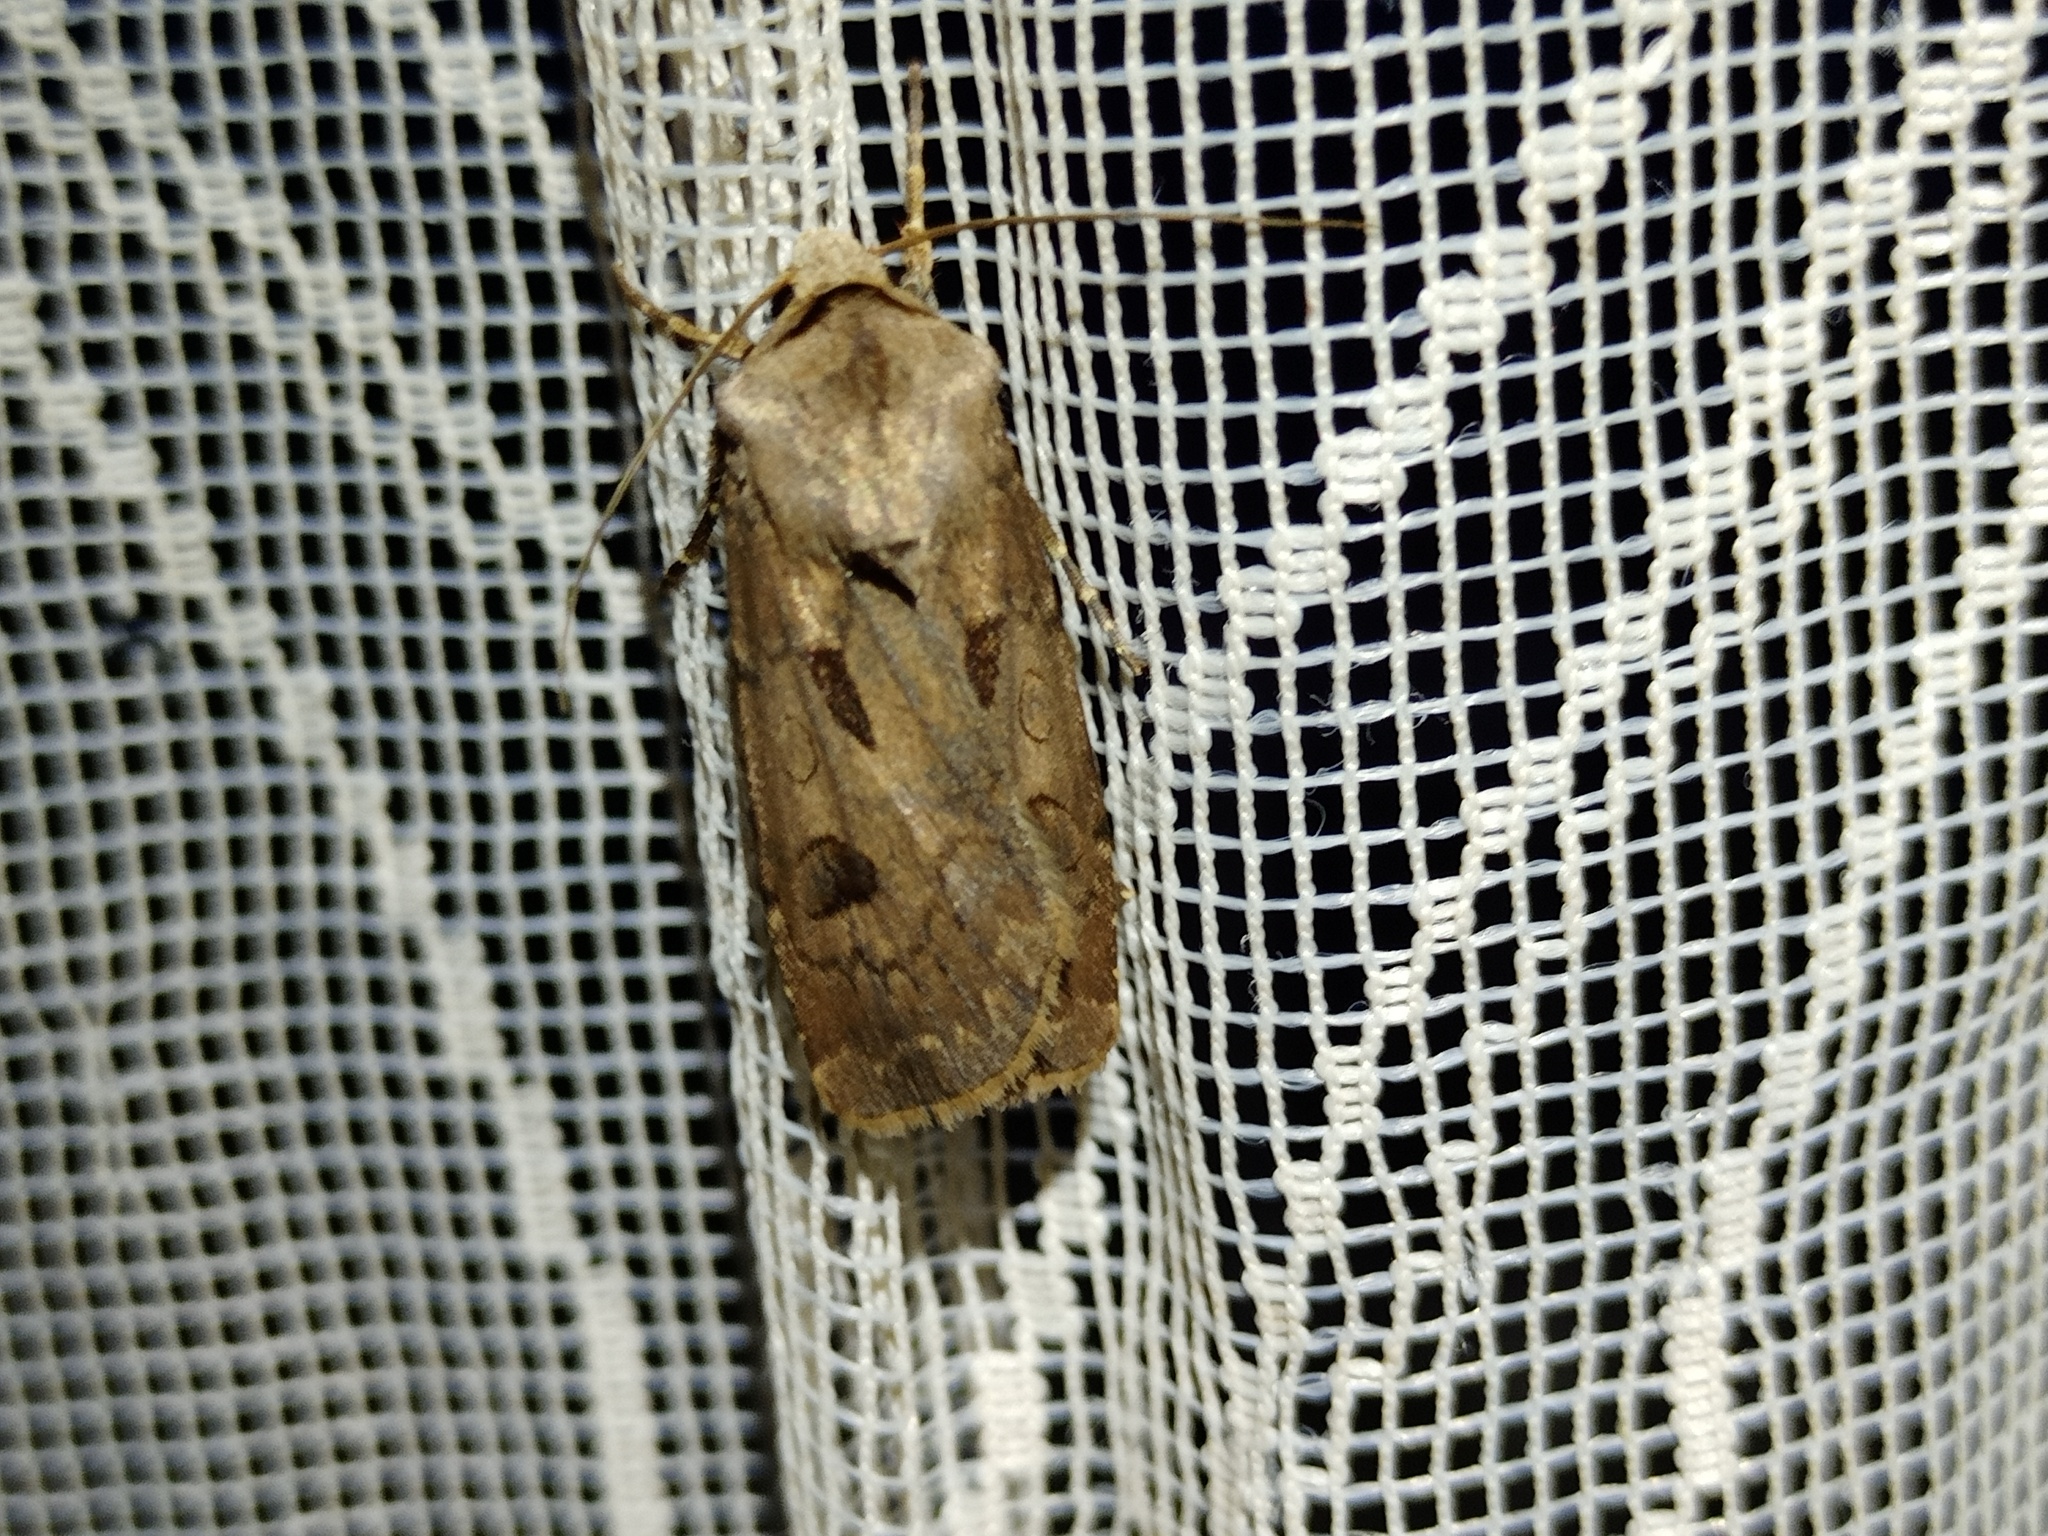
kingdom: Animalia
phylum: Arthropoda
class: Insecta
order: Lepidoptera
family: Noctuidae
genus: Agrotis
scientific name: Agrotis exclamationis
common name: Heart and dart
